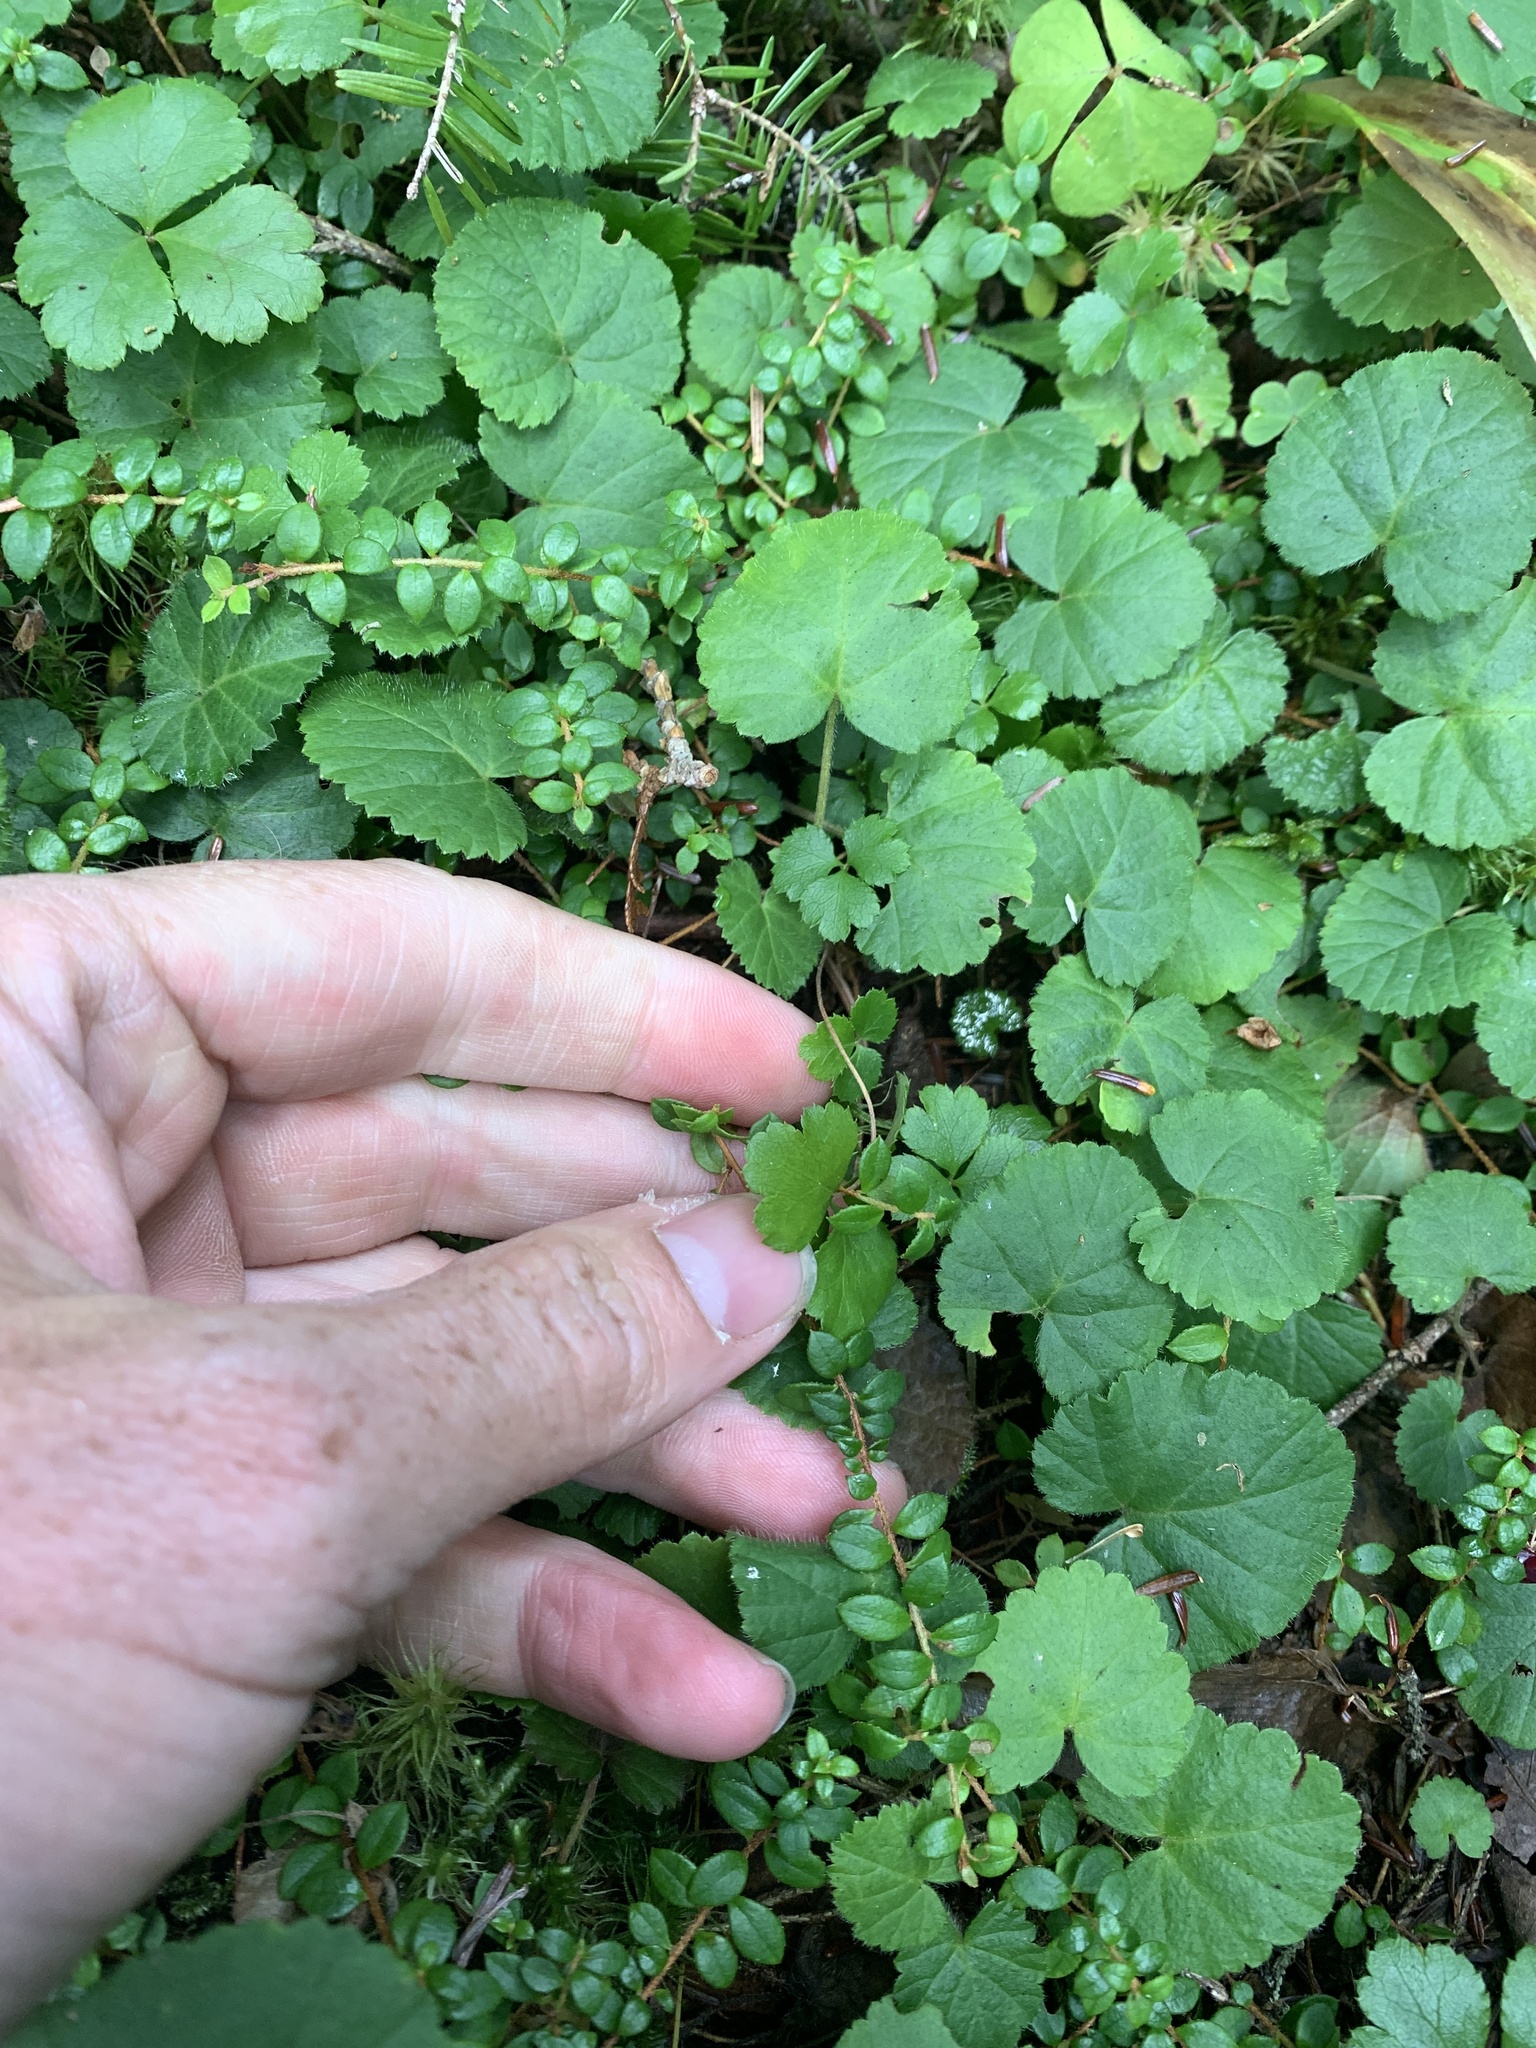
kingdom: Plantae
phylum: Tracheophyta
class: Magnoliopsida
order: Ericales
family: Ericaceae
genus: Gaultheria
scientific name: Gaultheria hispidula
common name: Cancer wintergreen
